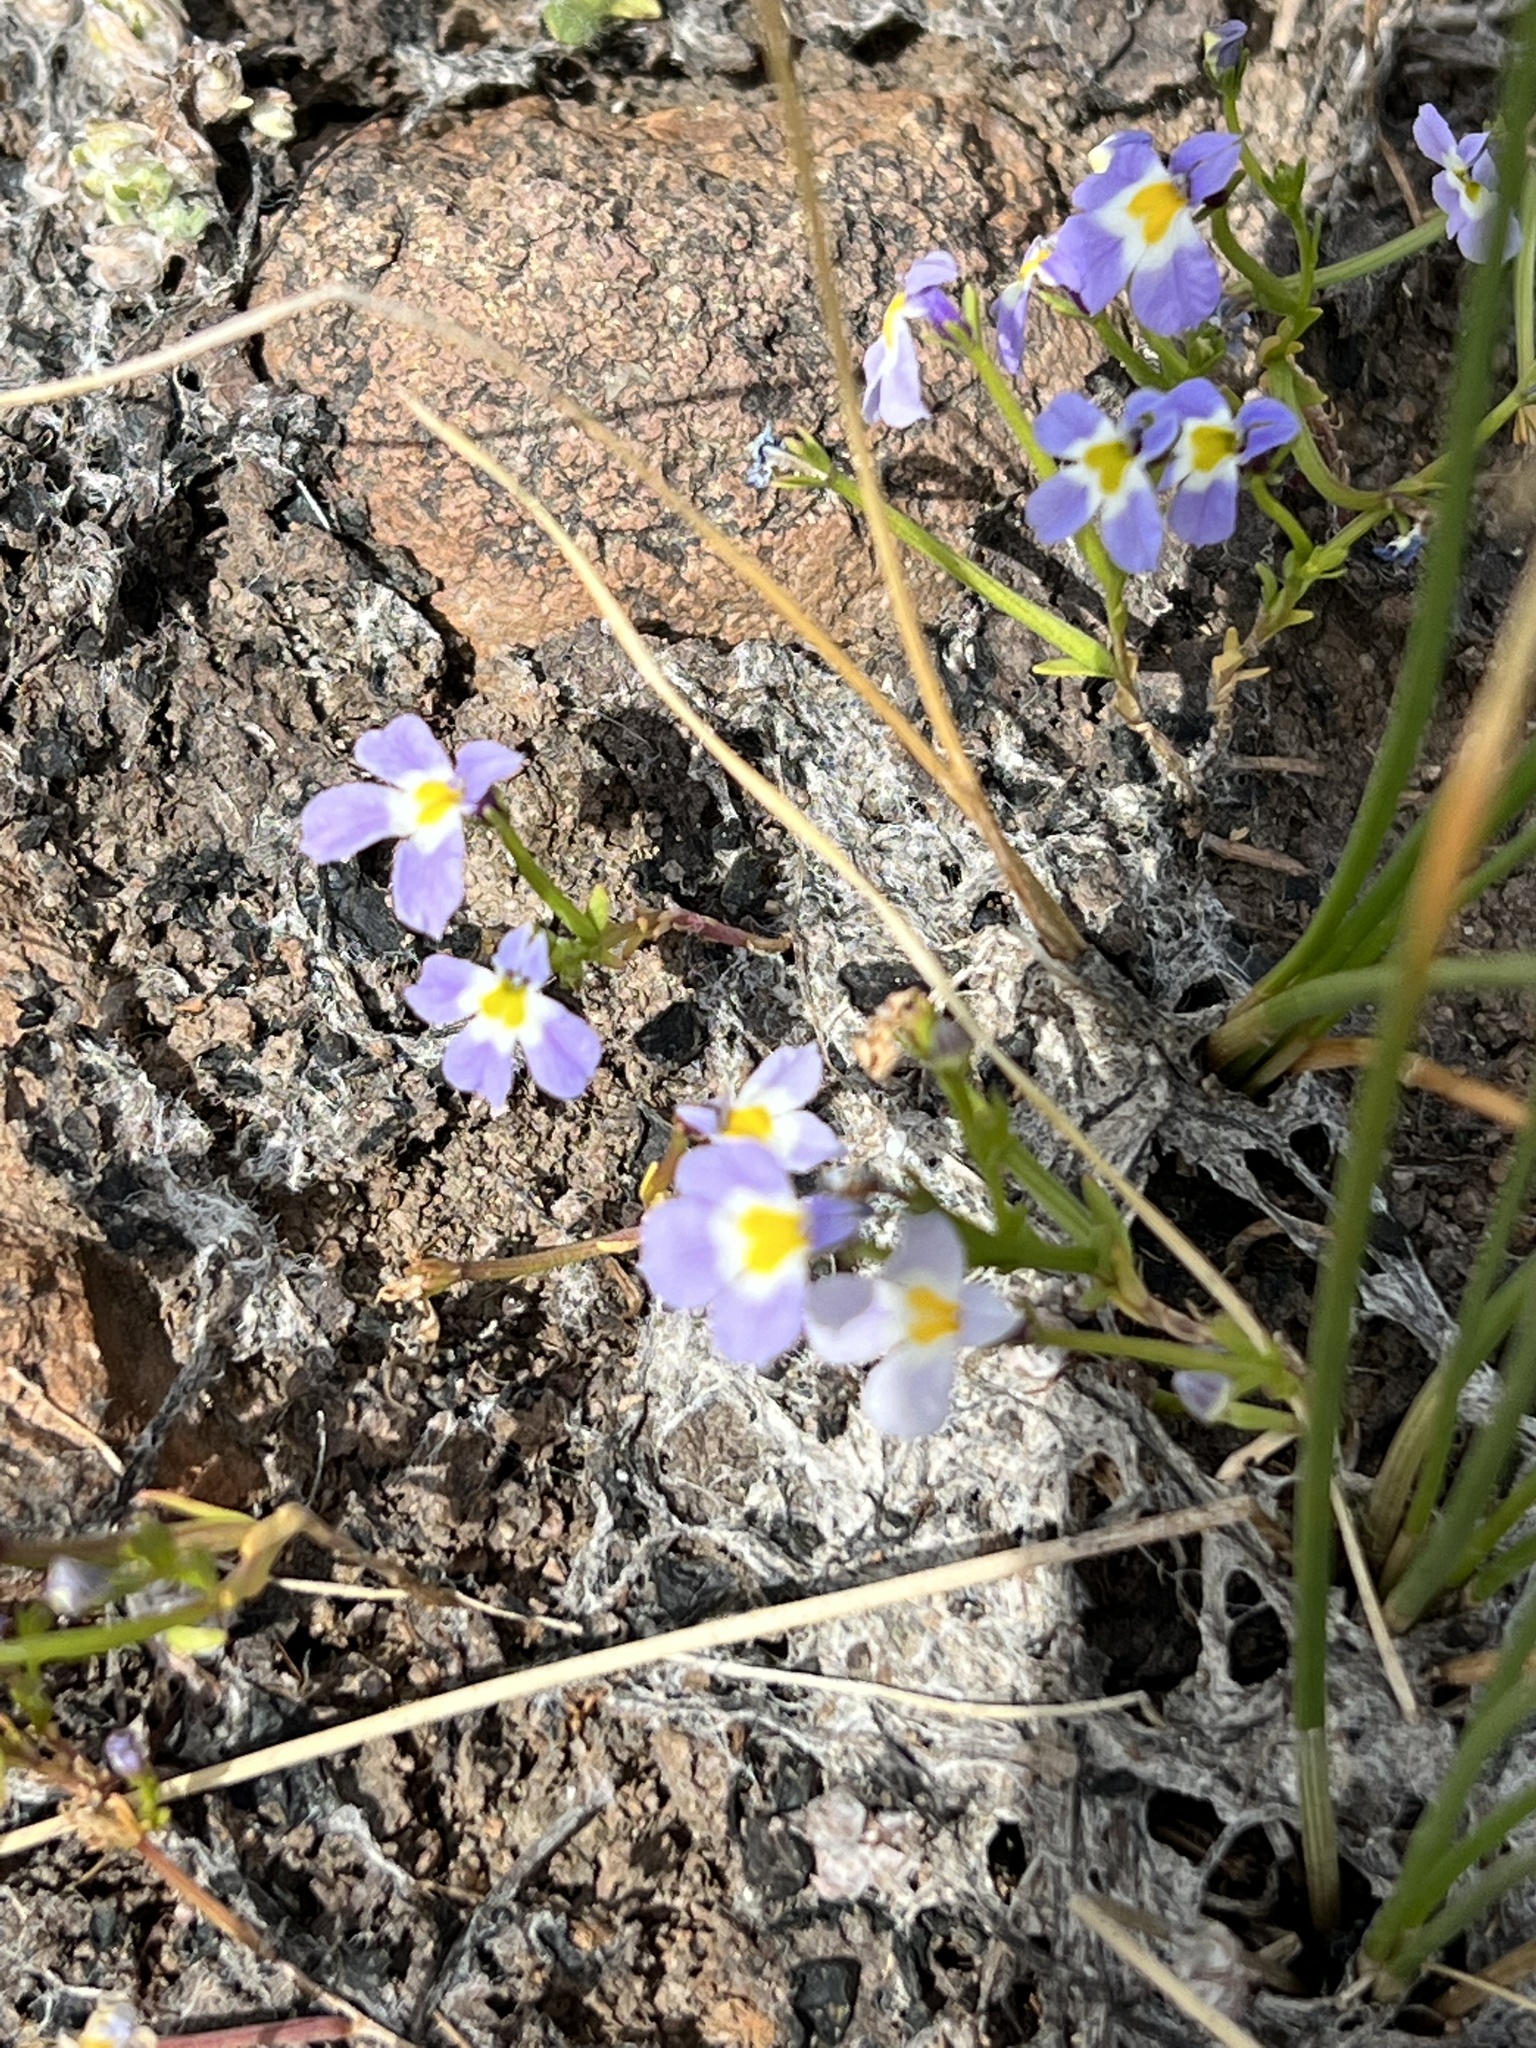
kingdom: Plantae
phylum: Tracheophyta
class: Magnoliopsida
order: Asterales
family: Campanulaceae
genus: Downingia
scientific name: Downingia cuspidata
